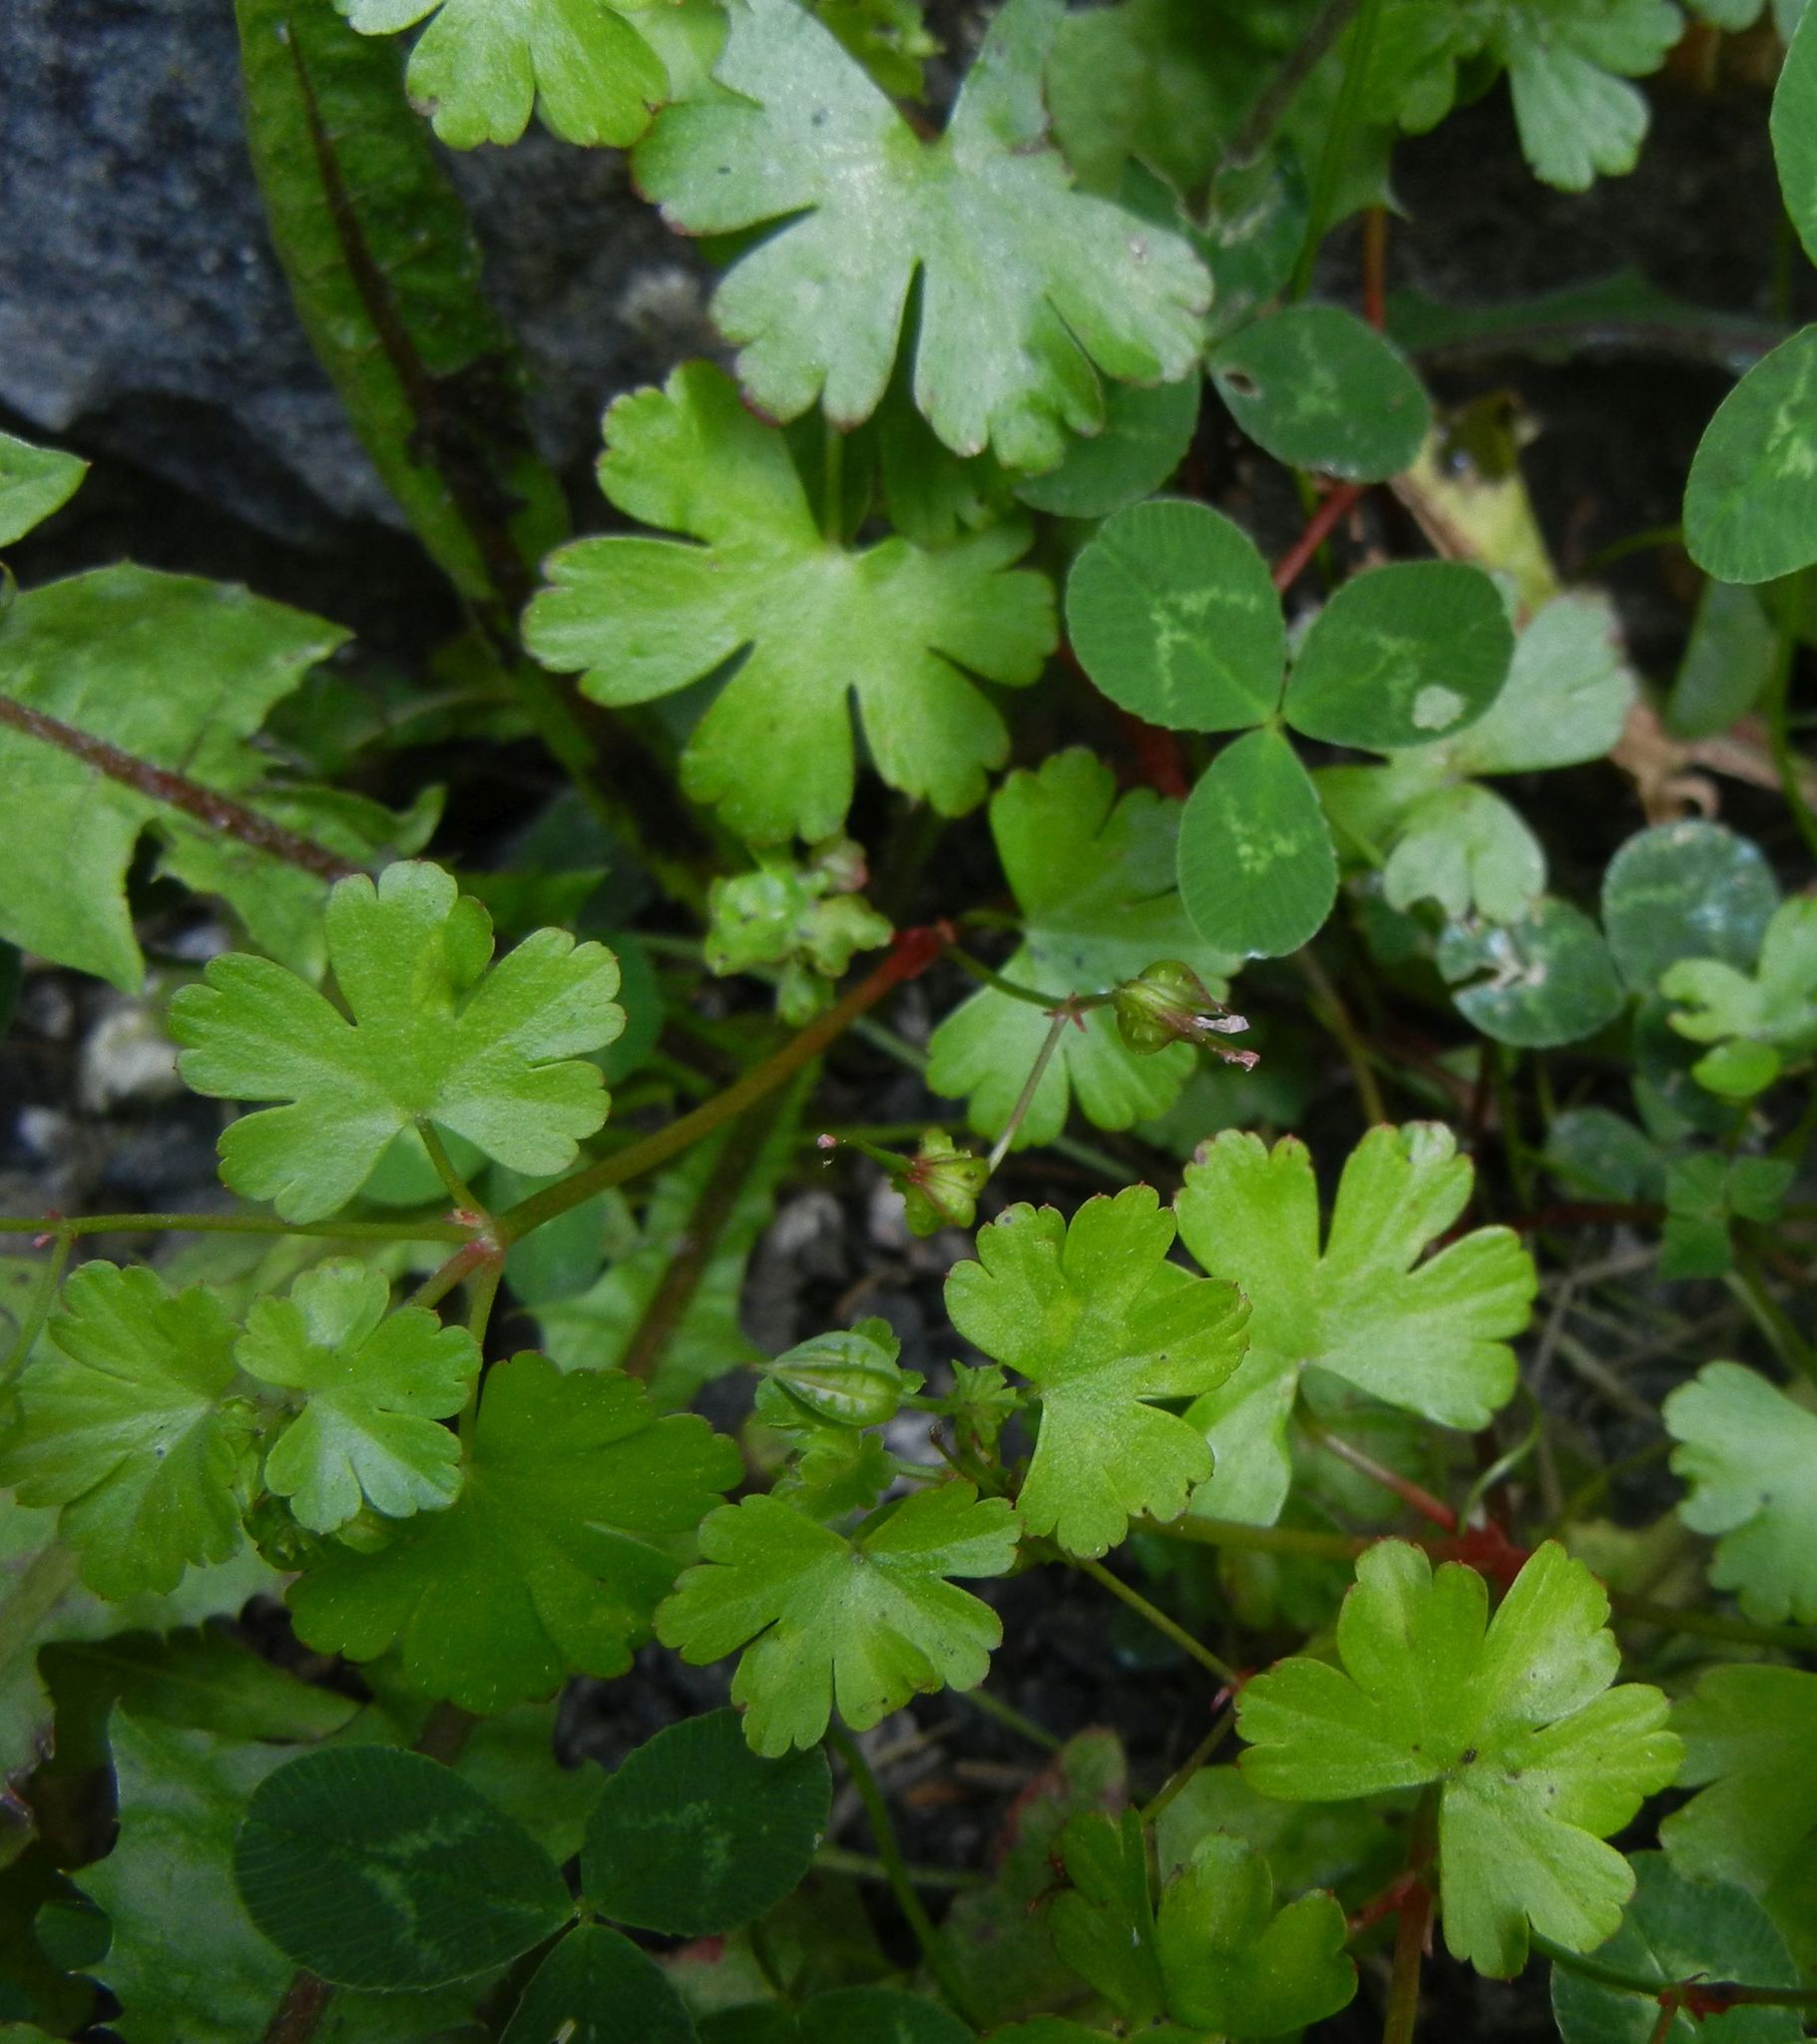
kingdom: Plantae
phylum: Tracheophyta
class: Magnoliopsida
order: Geraniales
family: Geraniaceae
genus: Geranium
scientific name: Geranium lucidum
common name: Shining crane's-bill
